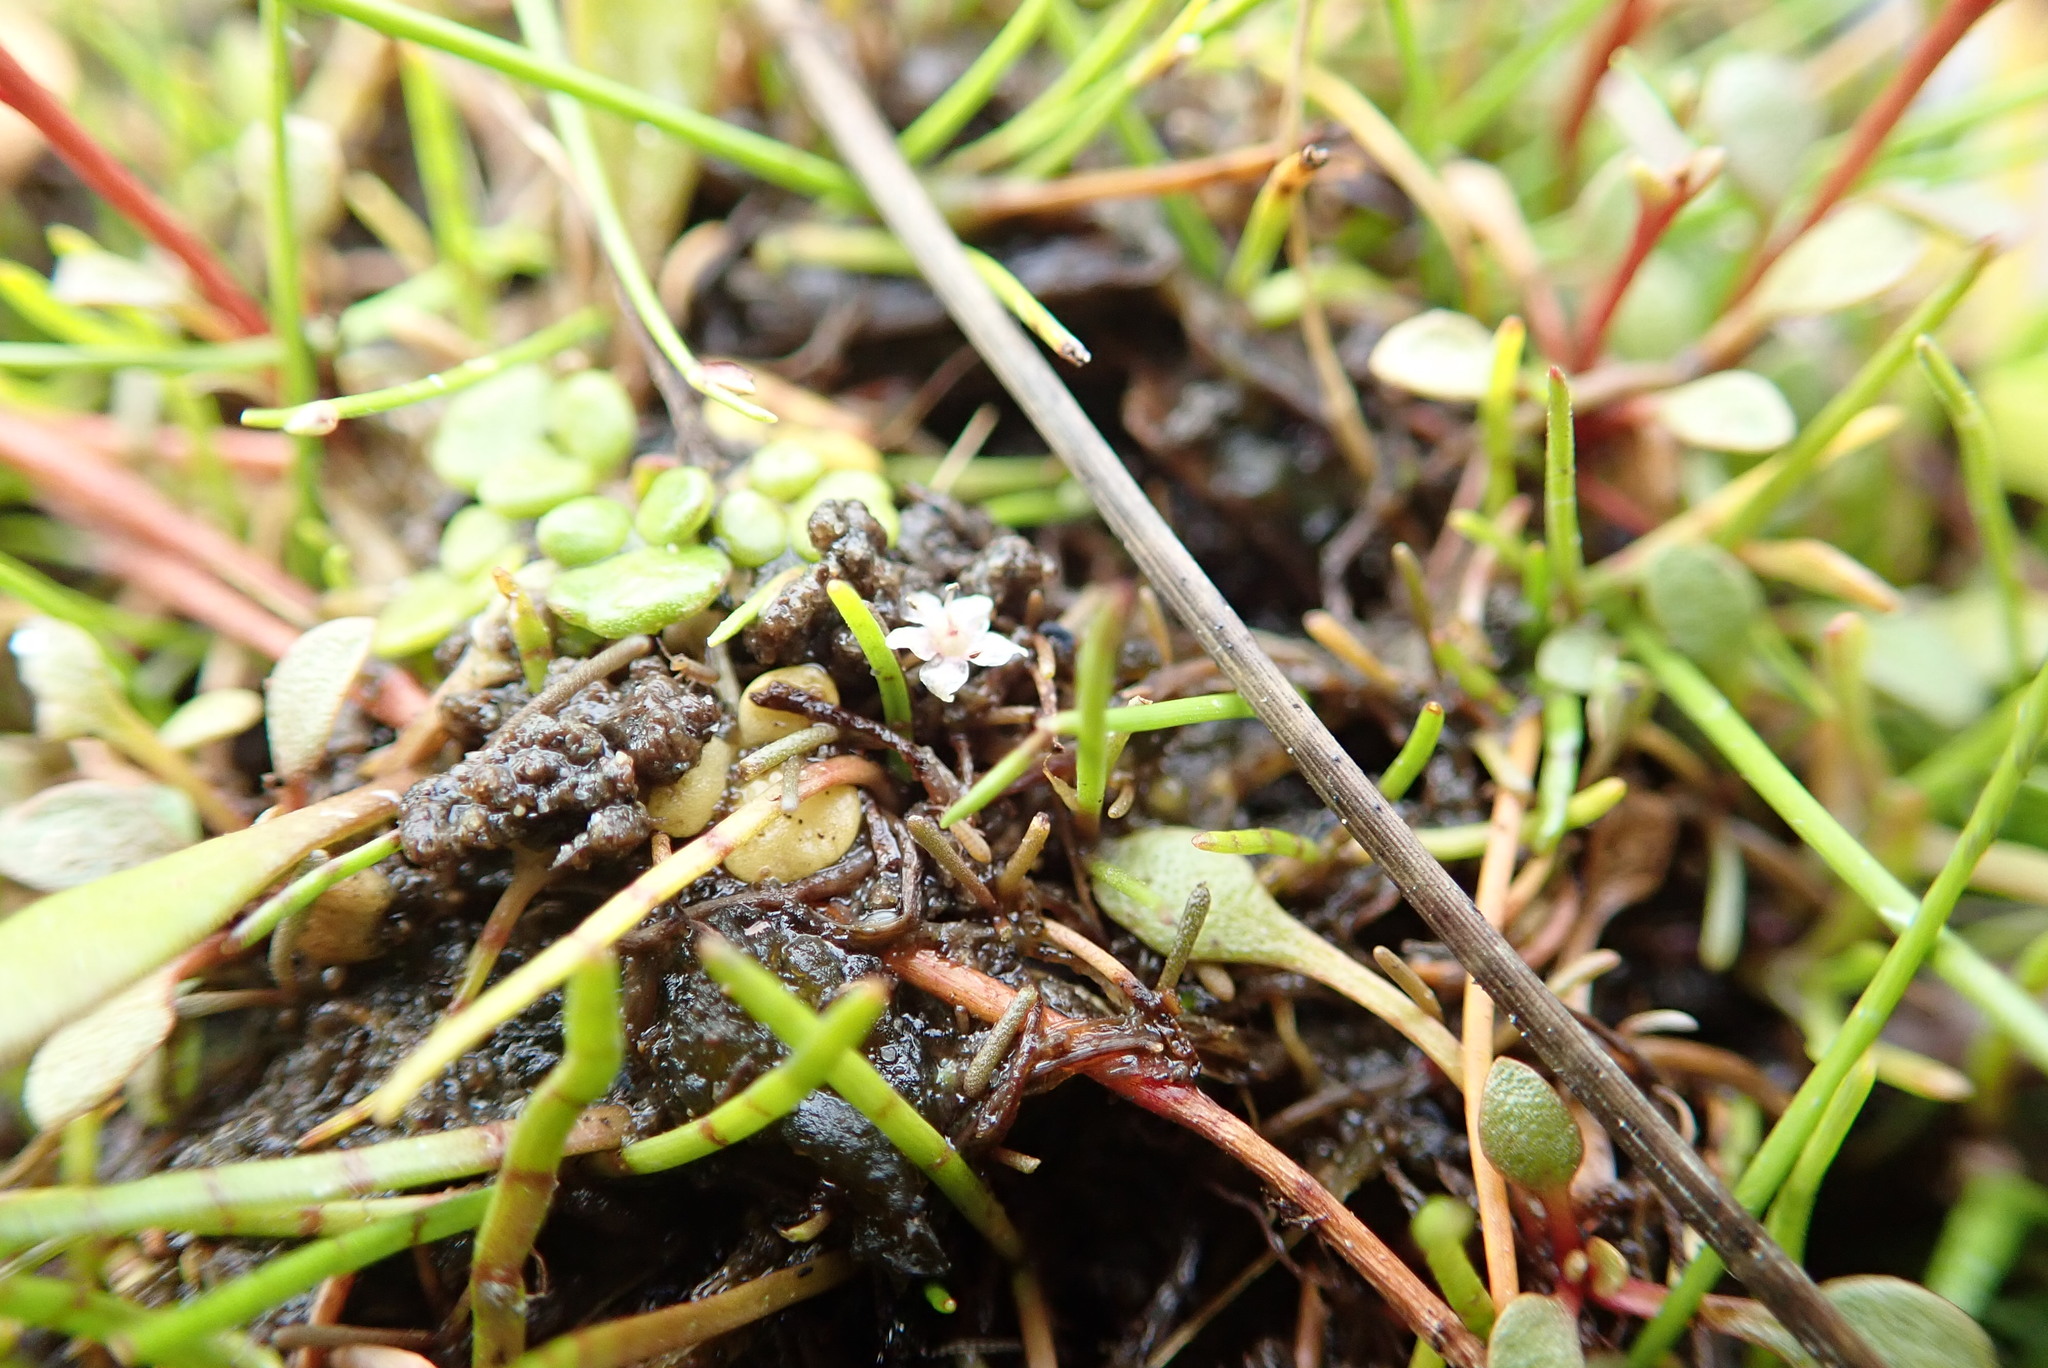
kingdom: Plantae
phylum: Tracheophyta
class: Magnoliopsida
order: Apiales
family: Apiaceae
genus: Lilaeopsis
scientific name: Lilaeopsis novae-zelandiae
